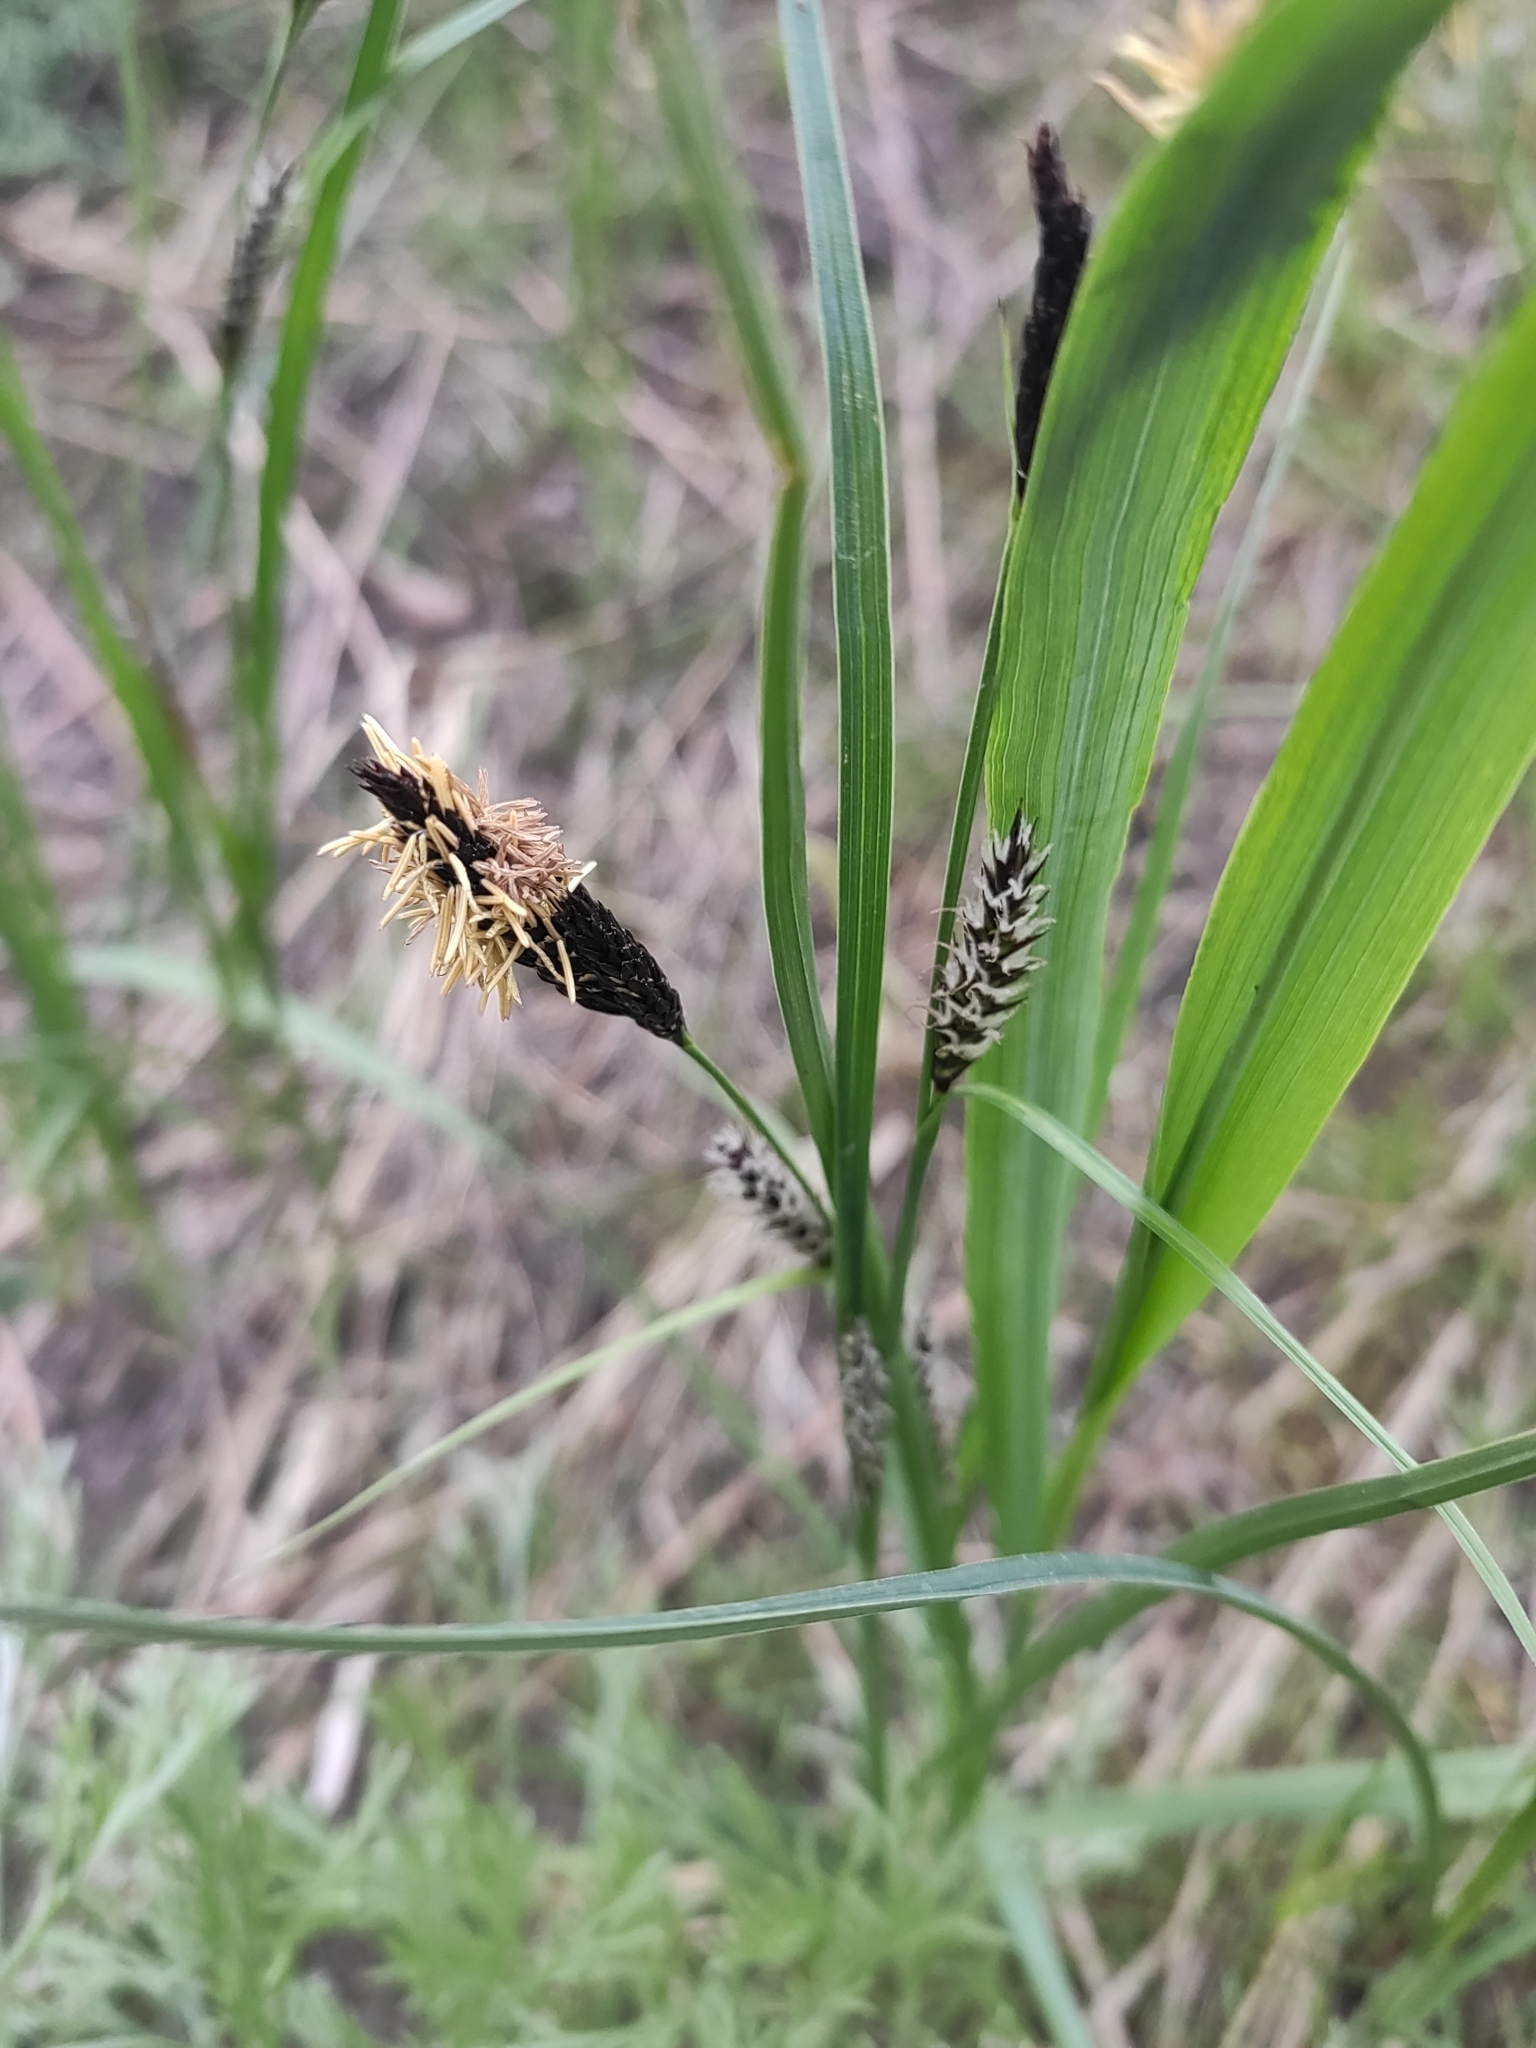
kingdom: Plantae
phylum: Tracheophyta
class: Liliopsida
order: Poales
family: Cyperaceae
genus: Carex
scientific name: Carex melanostachya
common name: Black-spiked sedge
